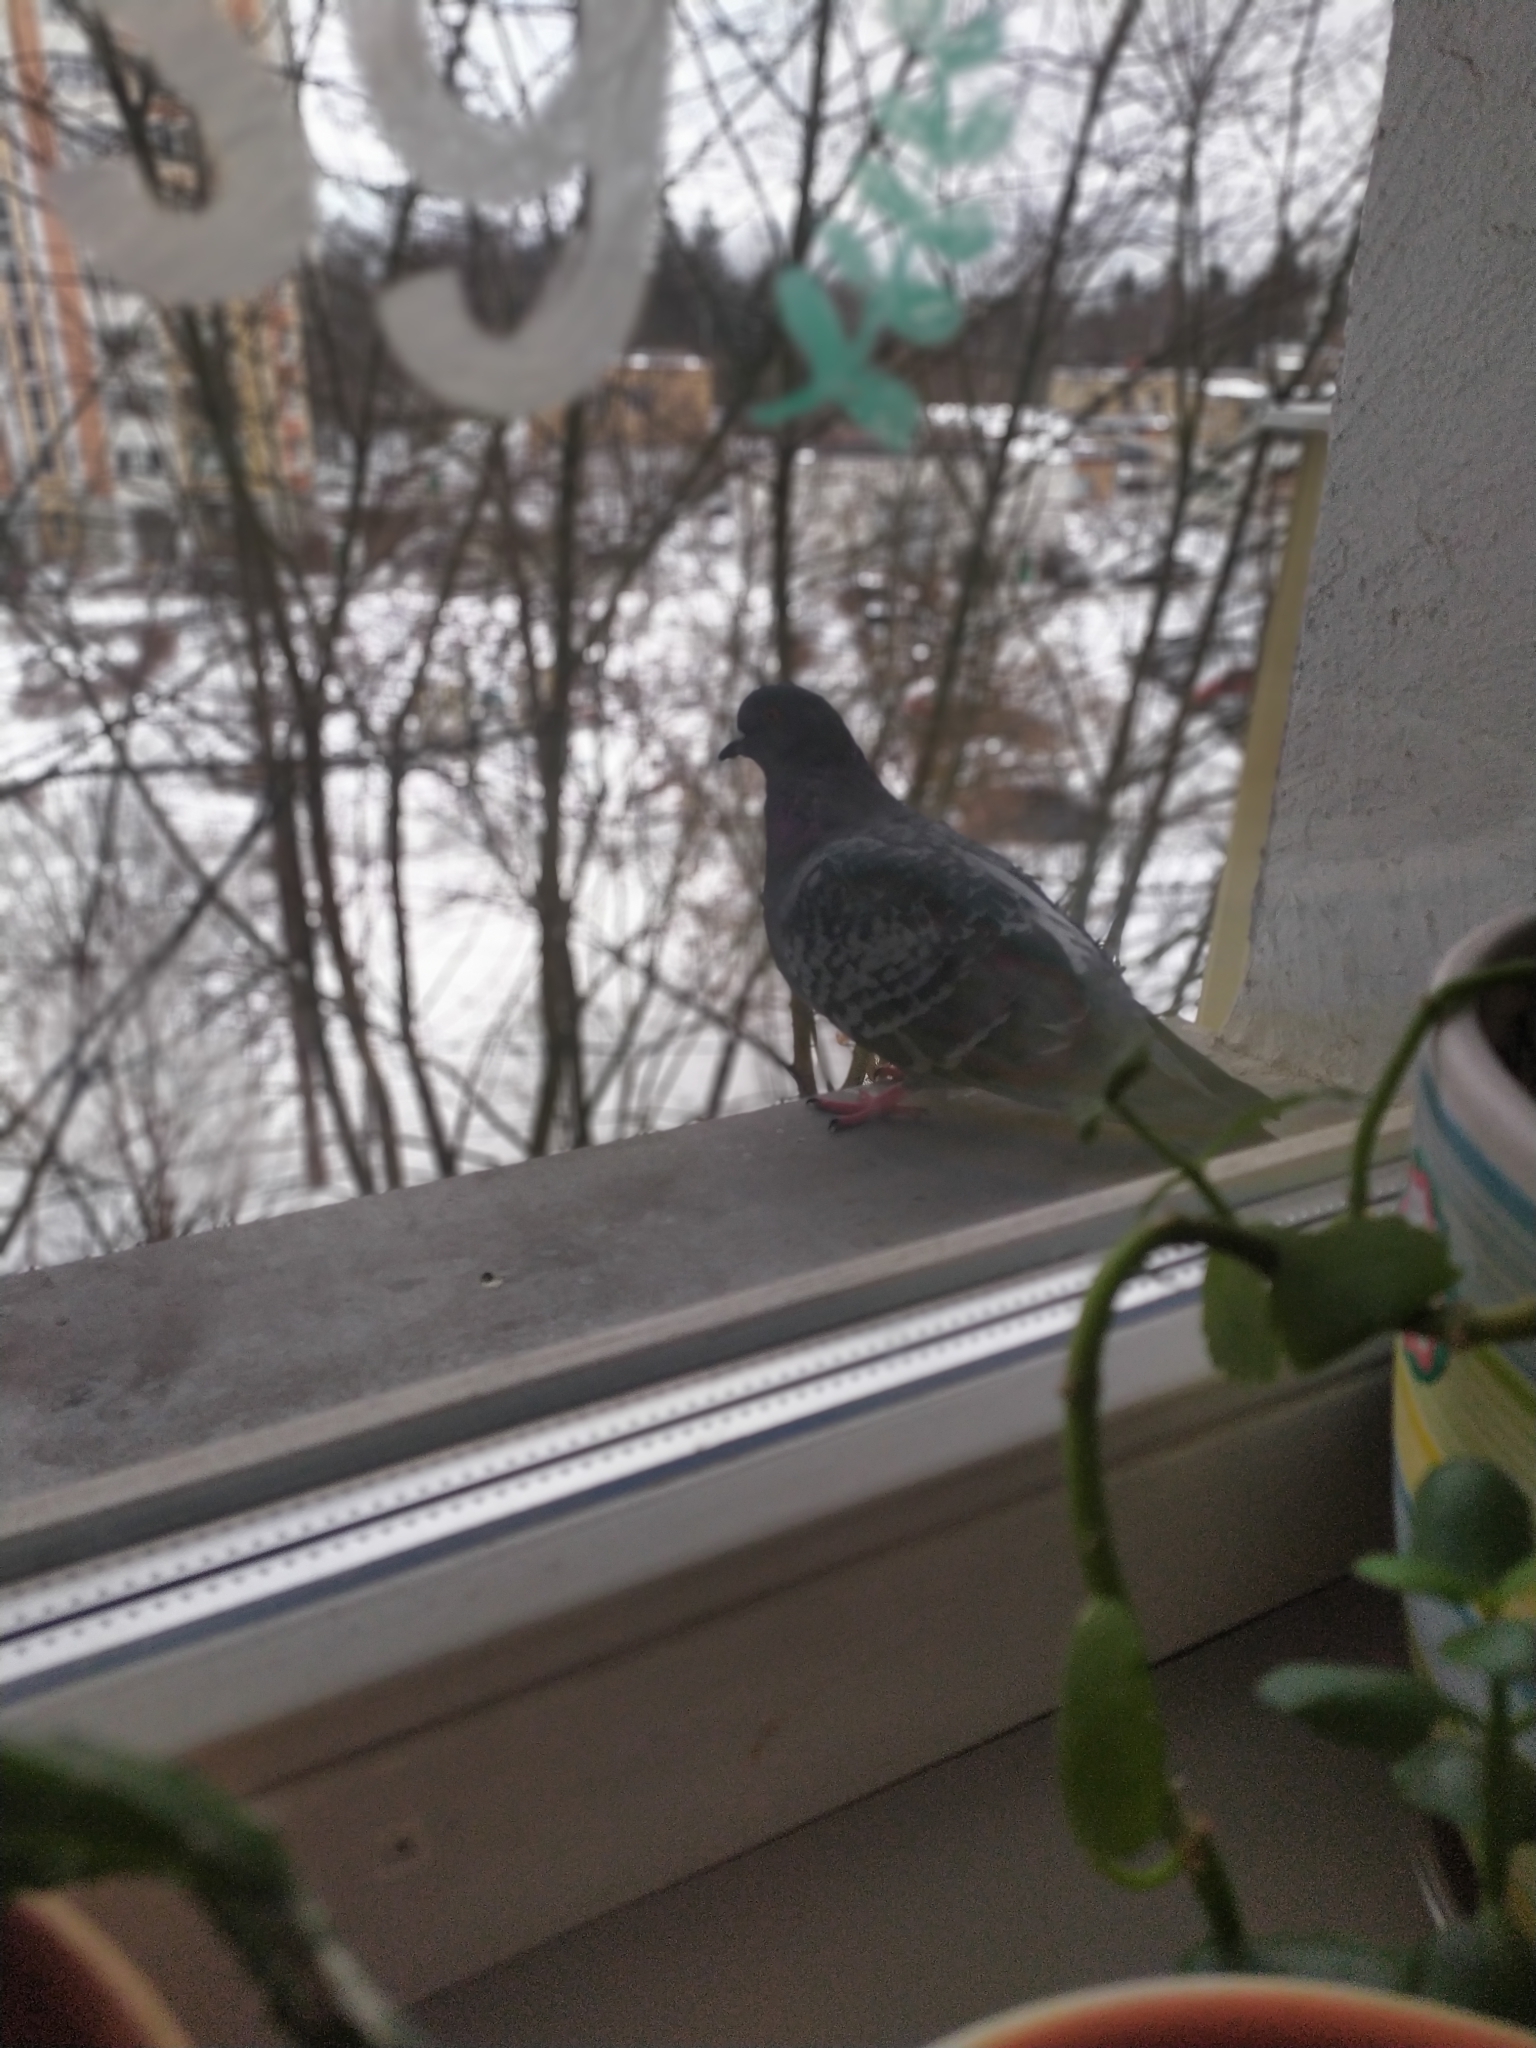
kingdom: Animalia
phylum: Chordata
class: Aves
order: Columbiformes
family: Columbidae
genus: Columba
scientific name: Columba livia
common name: Rock pigeon
